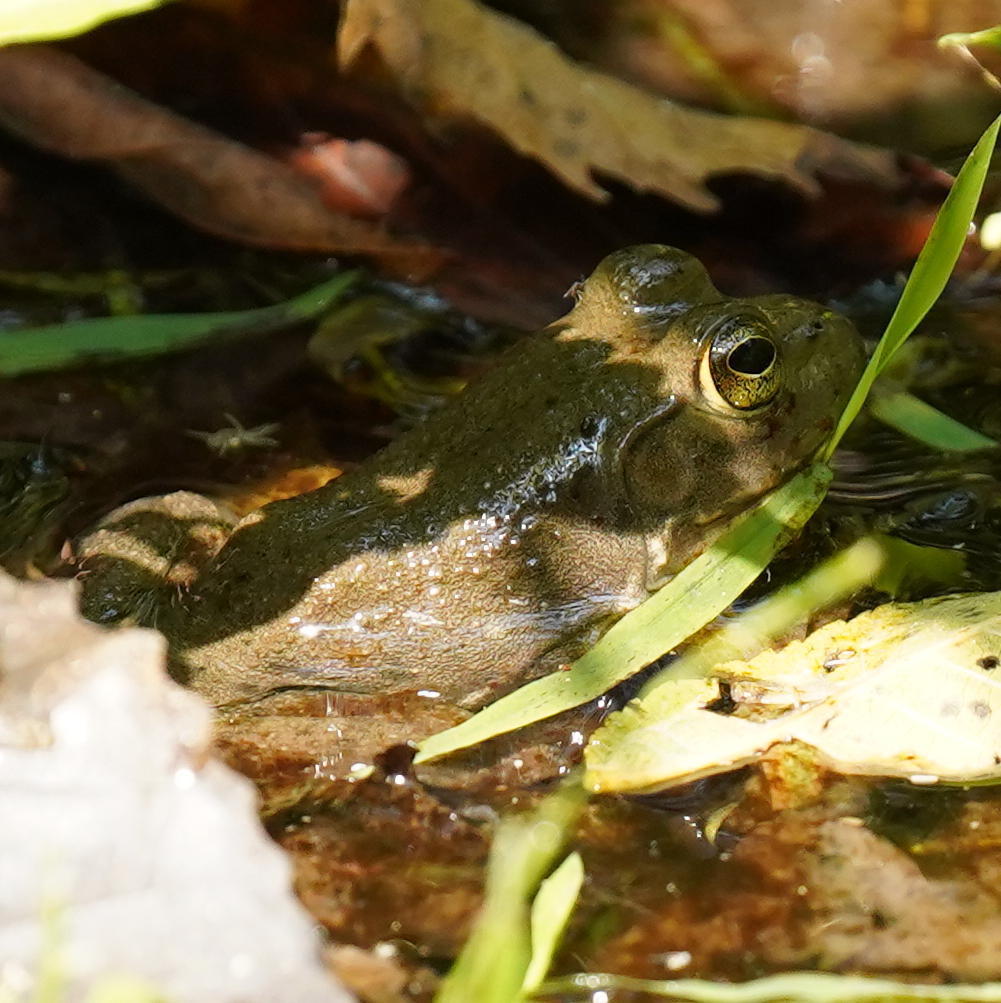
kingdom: Animalia
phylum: Chordata
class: Amphibia
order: Anura
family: Ranidae
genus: Lithobates
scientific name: Lithobates catesbeianus
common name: American bullfrog
